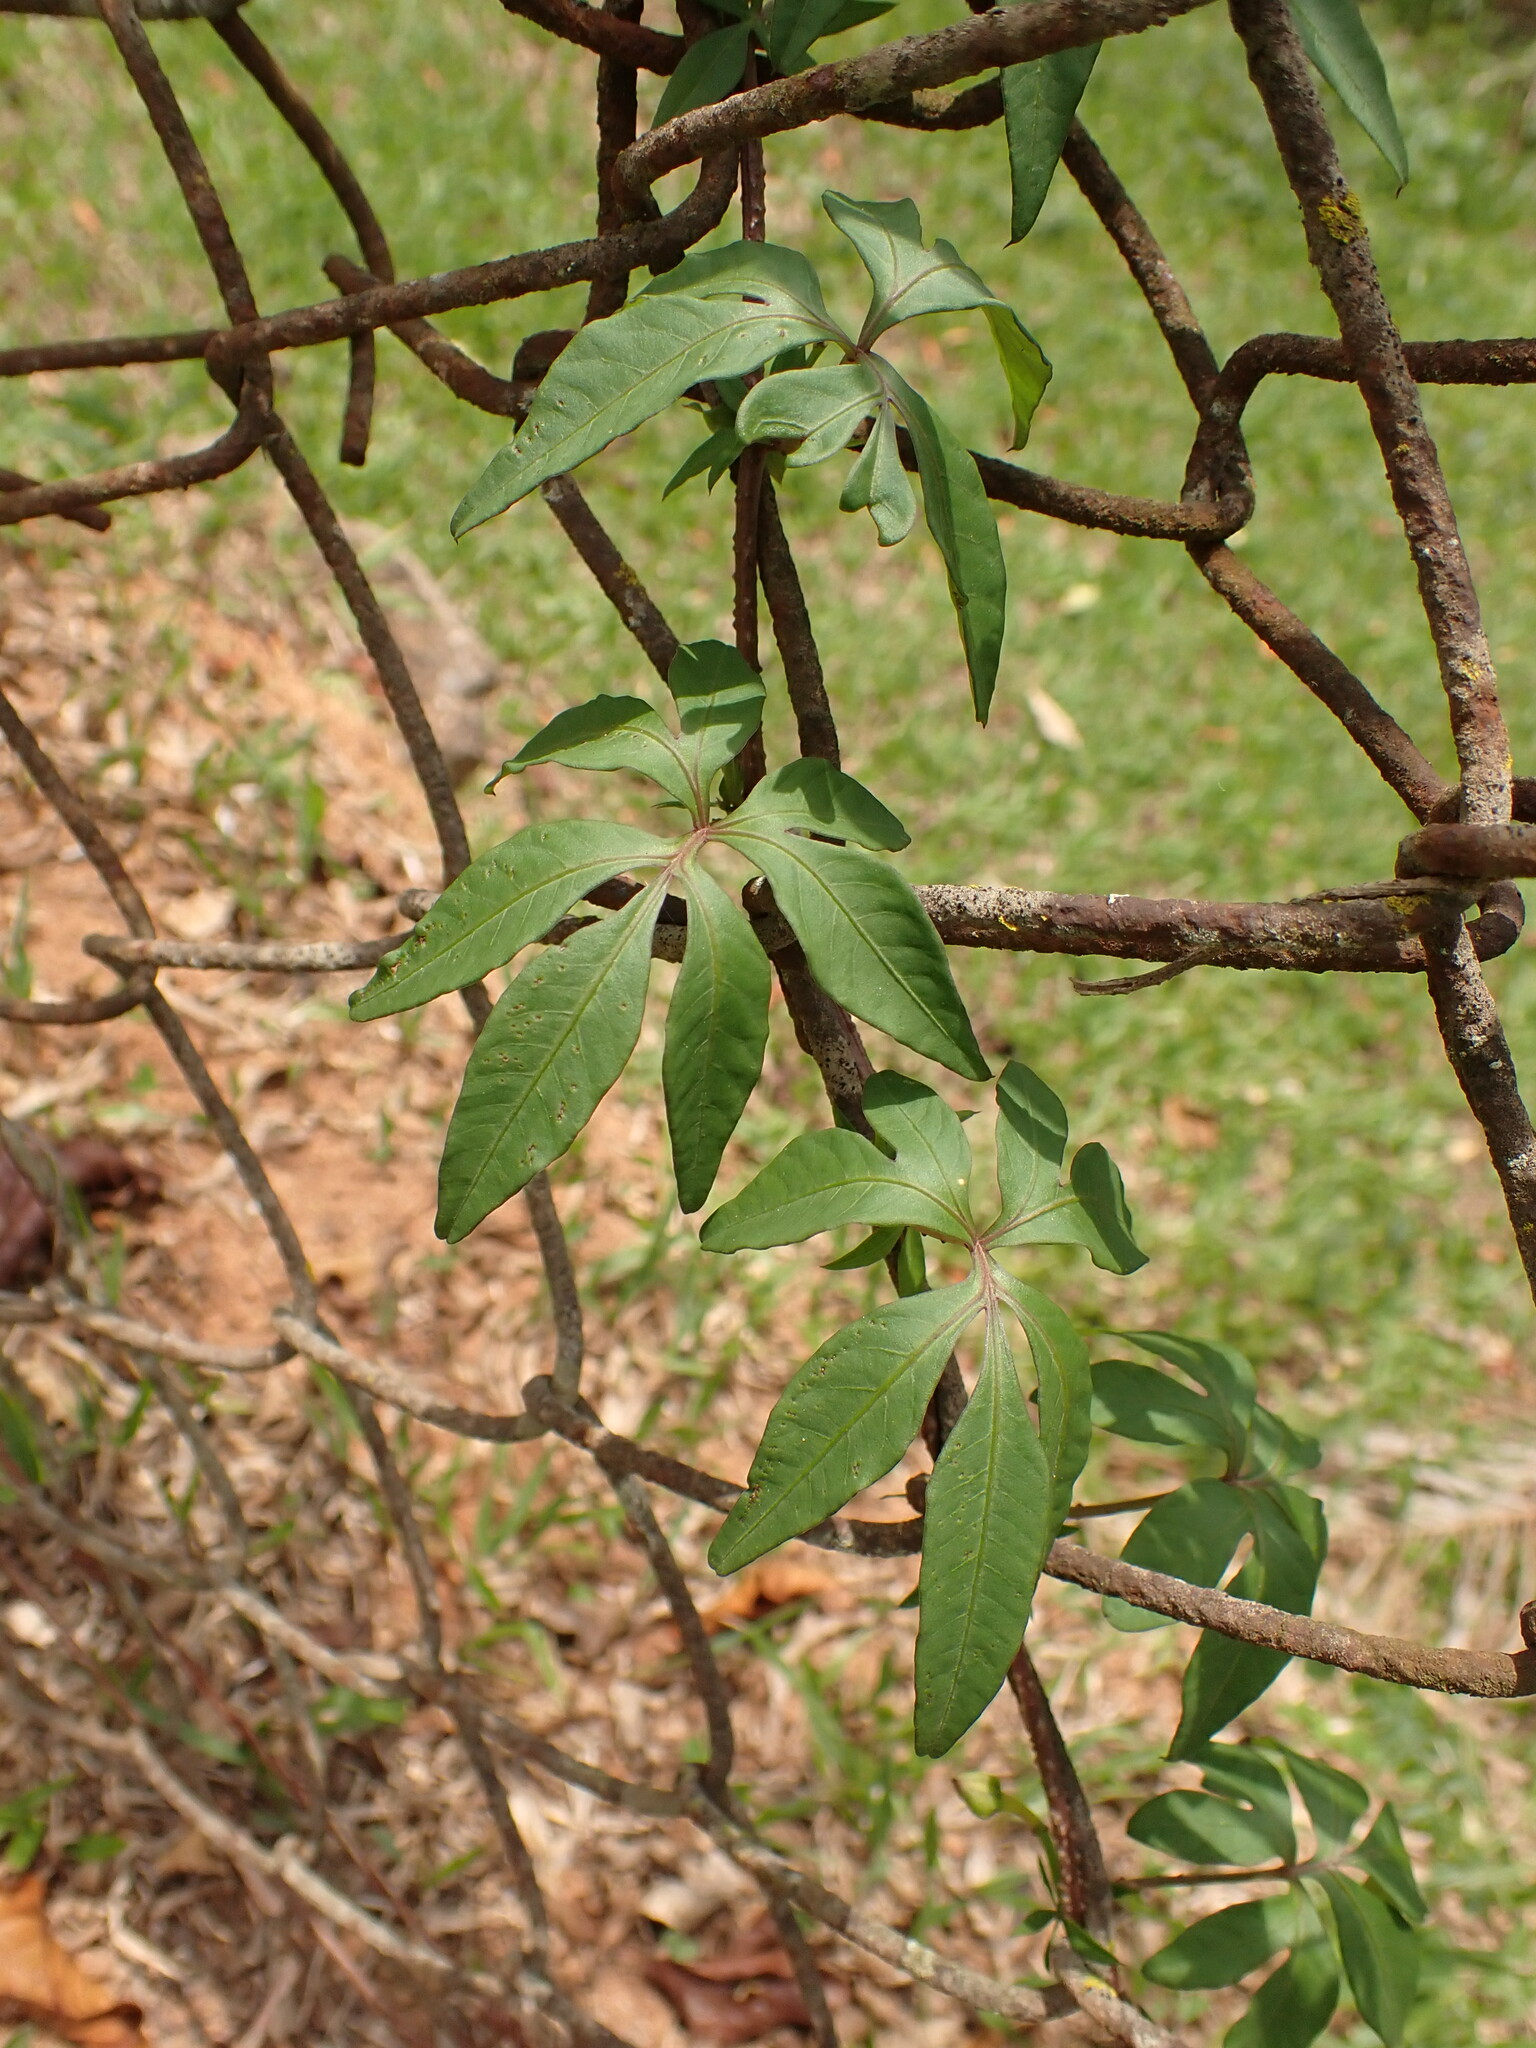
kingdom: Plantae
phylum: Tracheophyta
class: Magnoliopsida
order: Solanales
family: Convolvulaceae
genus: Ipomoea
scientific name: Ipomoea cairica
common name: Mile a minute vine
